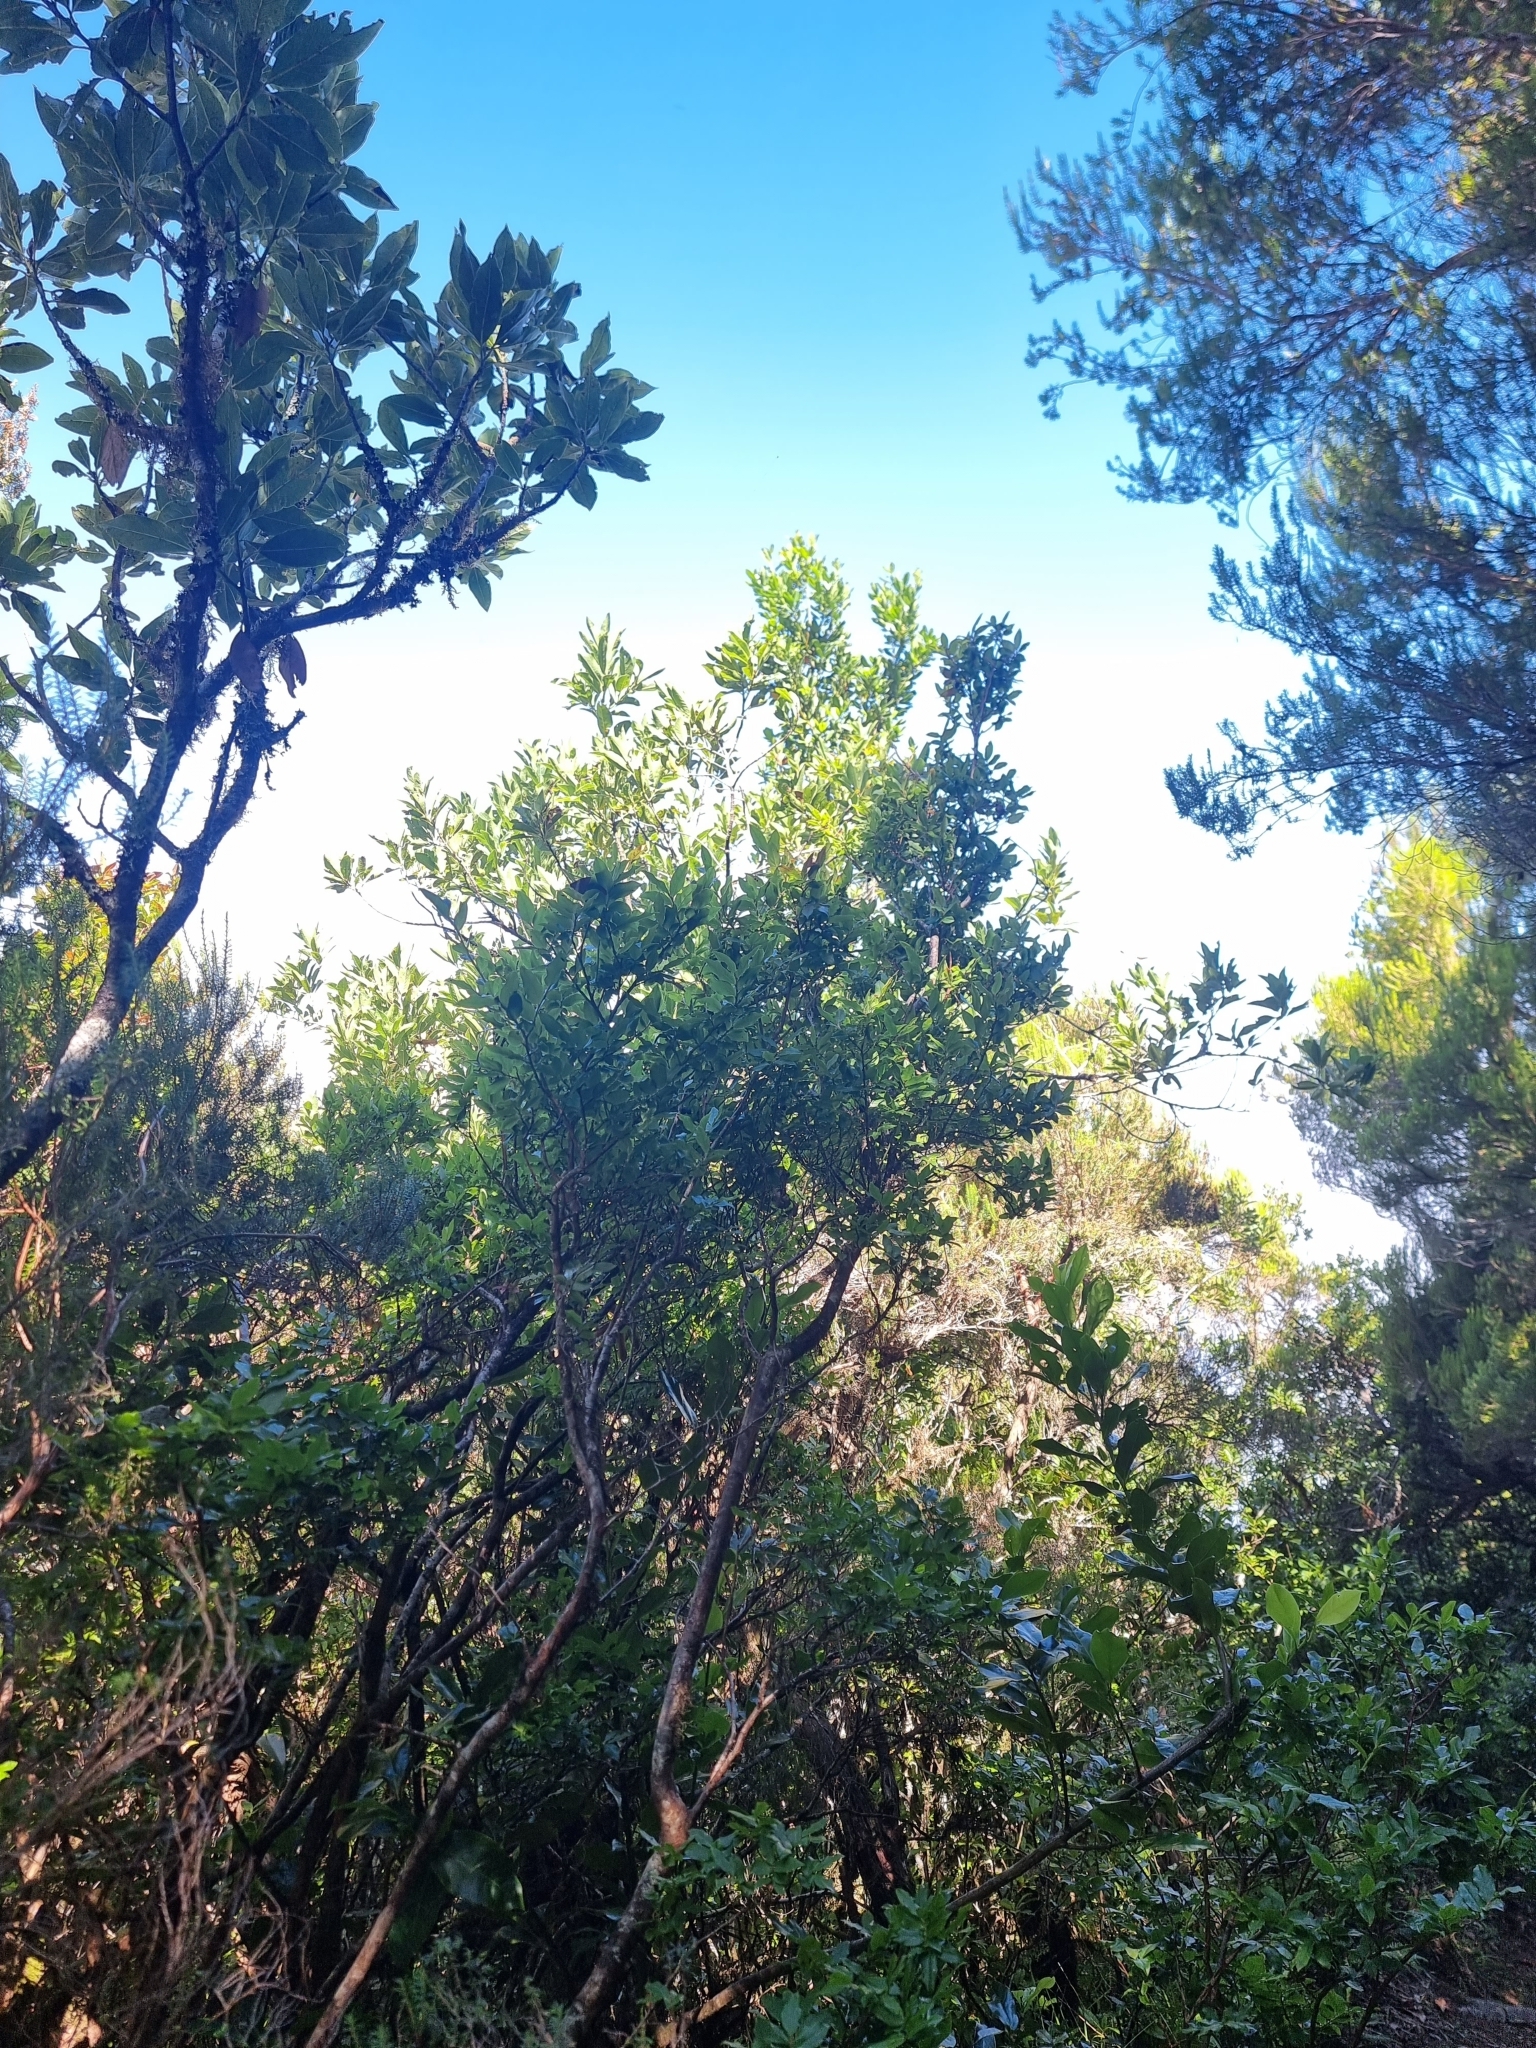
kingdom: Plantae
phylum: Tracheophyta
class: Magnoliopsida
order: Ericales
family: Ericaceae
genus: Vaccinium
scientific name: Vaccinium padifolium
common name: Madeiran blueberry
